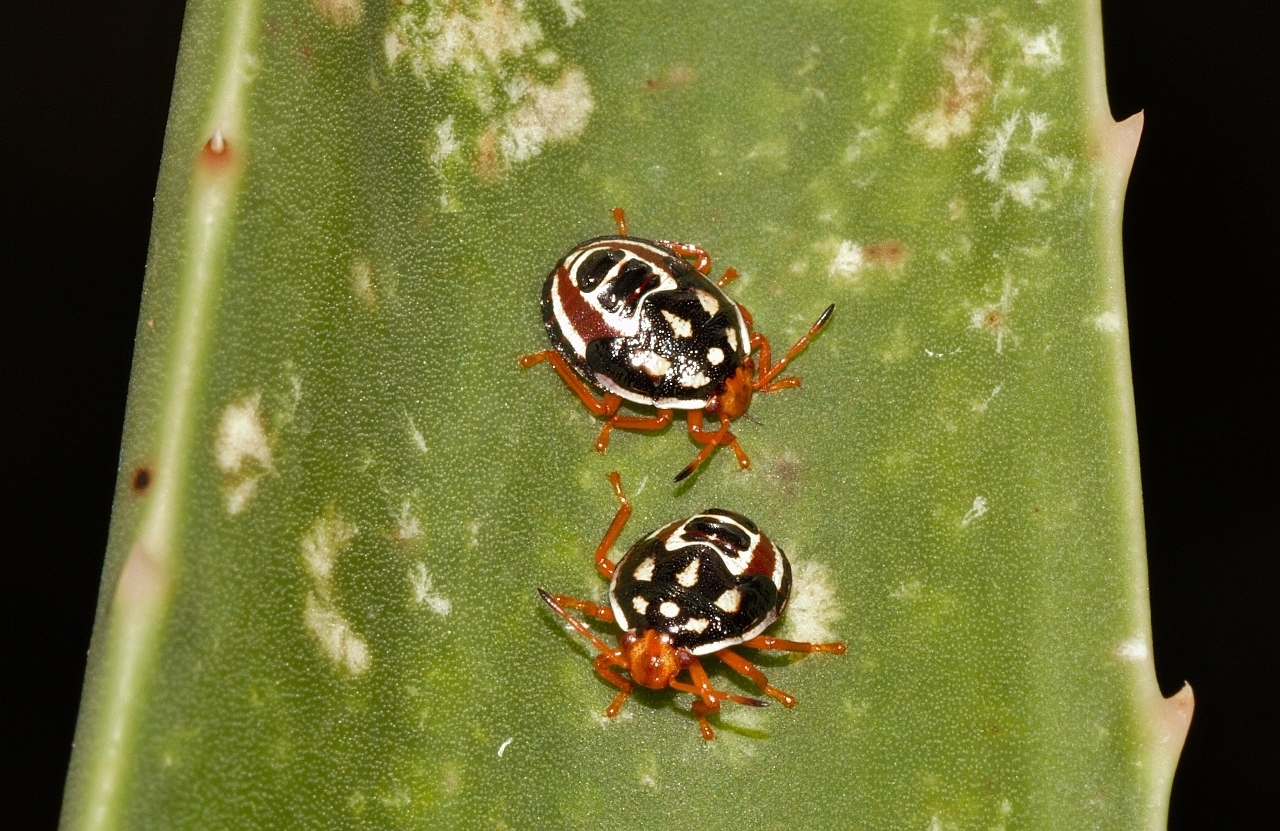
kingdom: Animalia
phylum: Arthropoda
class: Insecta
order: Hemiptera
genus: Flaminia
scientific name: Flaminia
